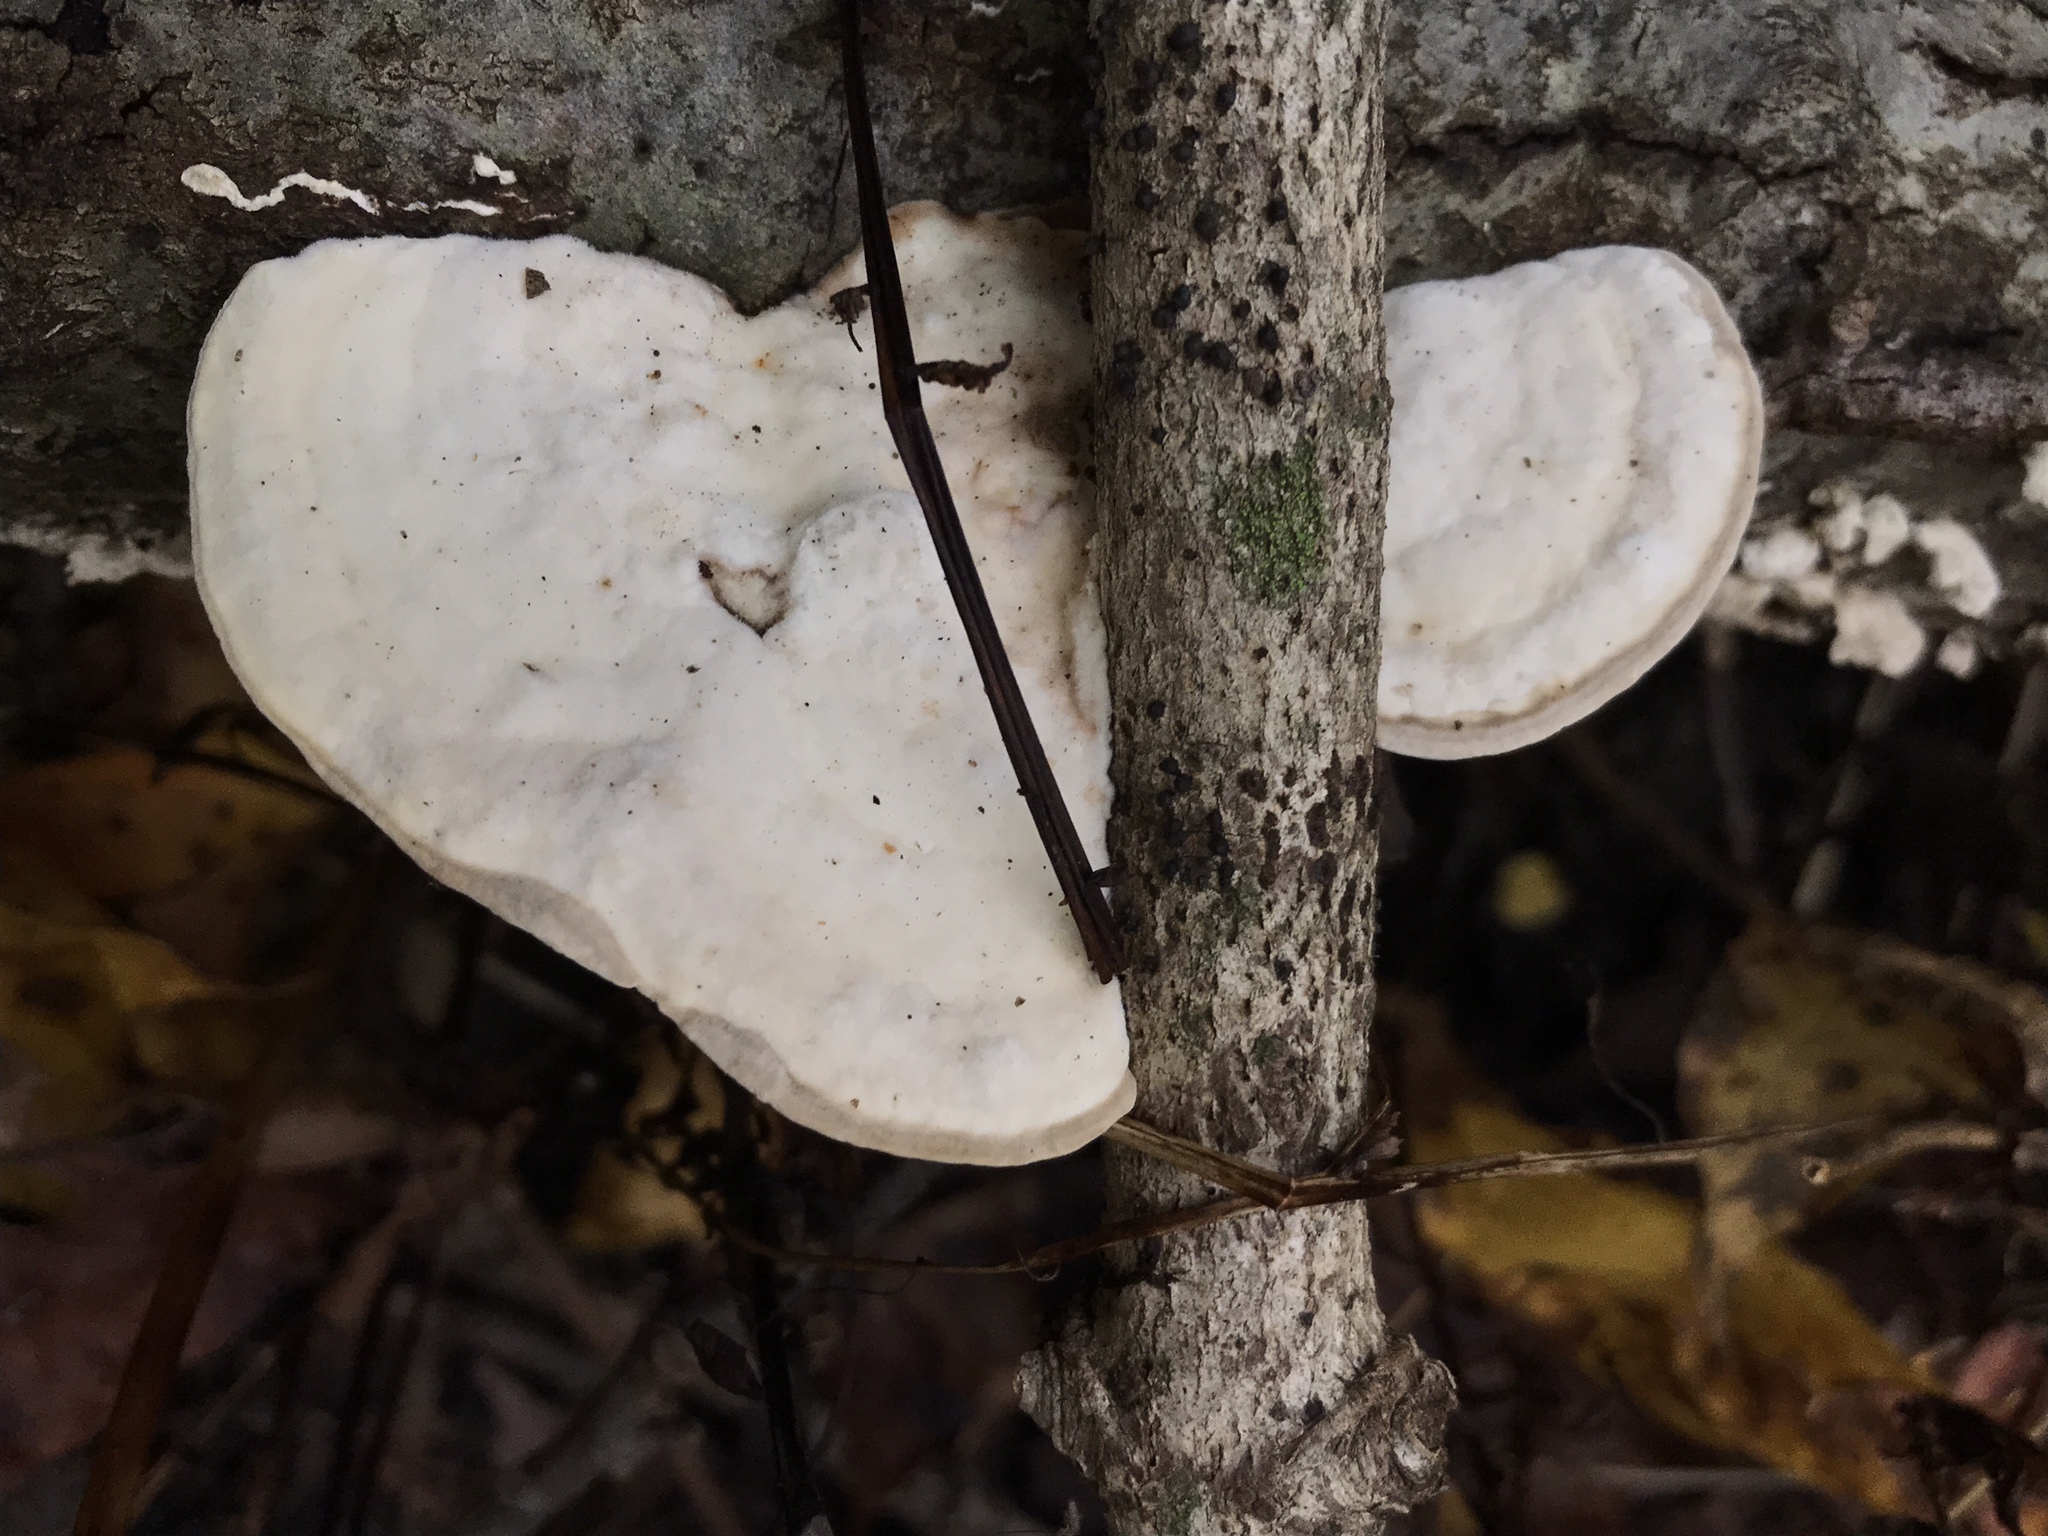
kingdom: Fungi
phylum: Basidiomycota
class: Agaricomycetes
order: Polyporales
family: Polyporaceae
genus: Trametes
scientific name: Trametes
